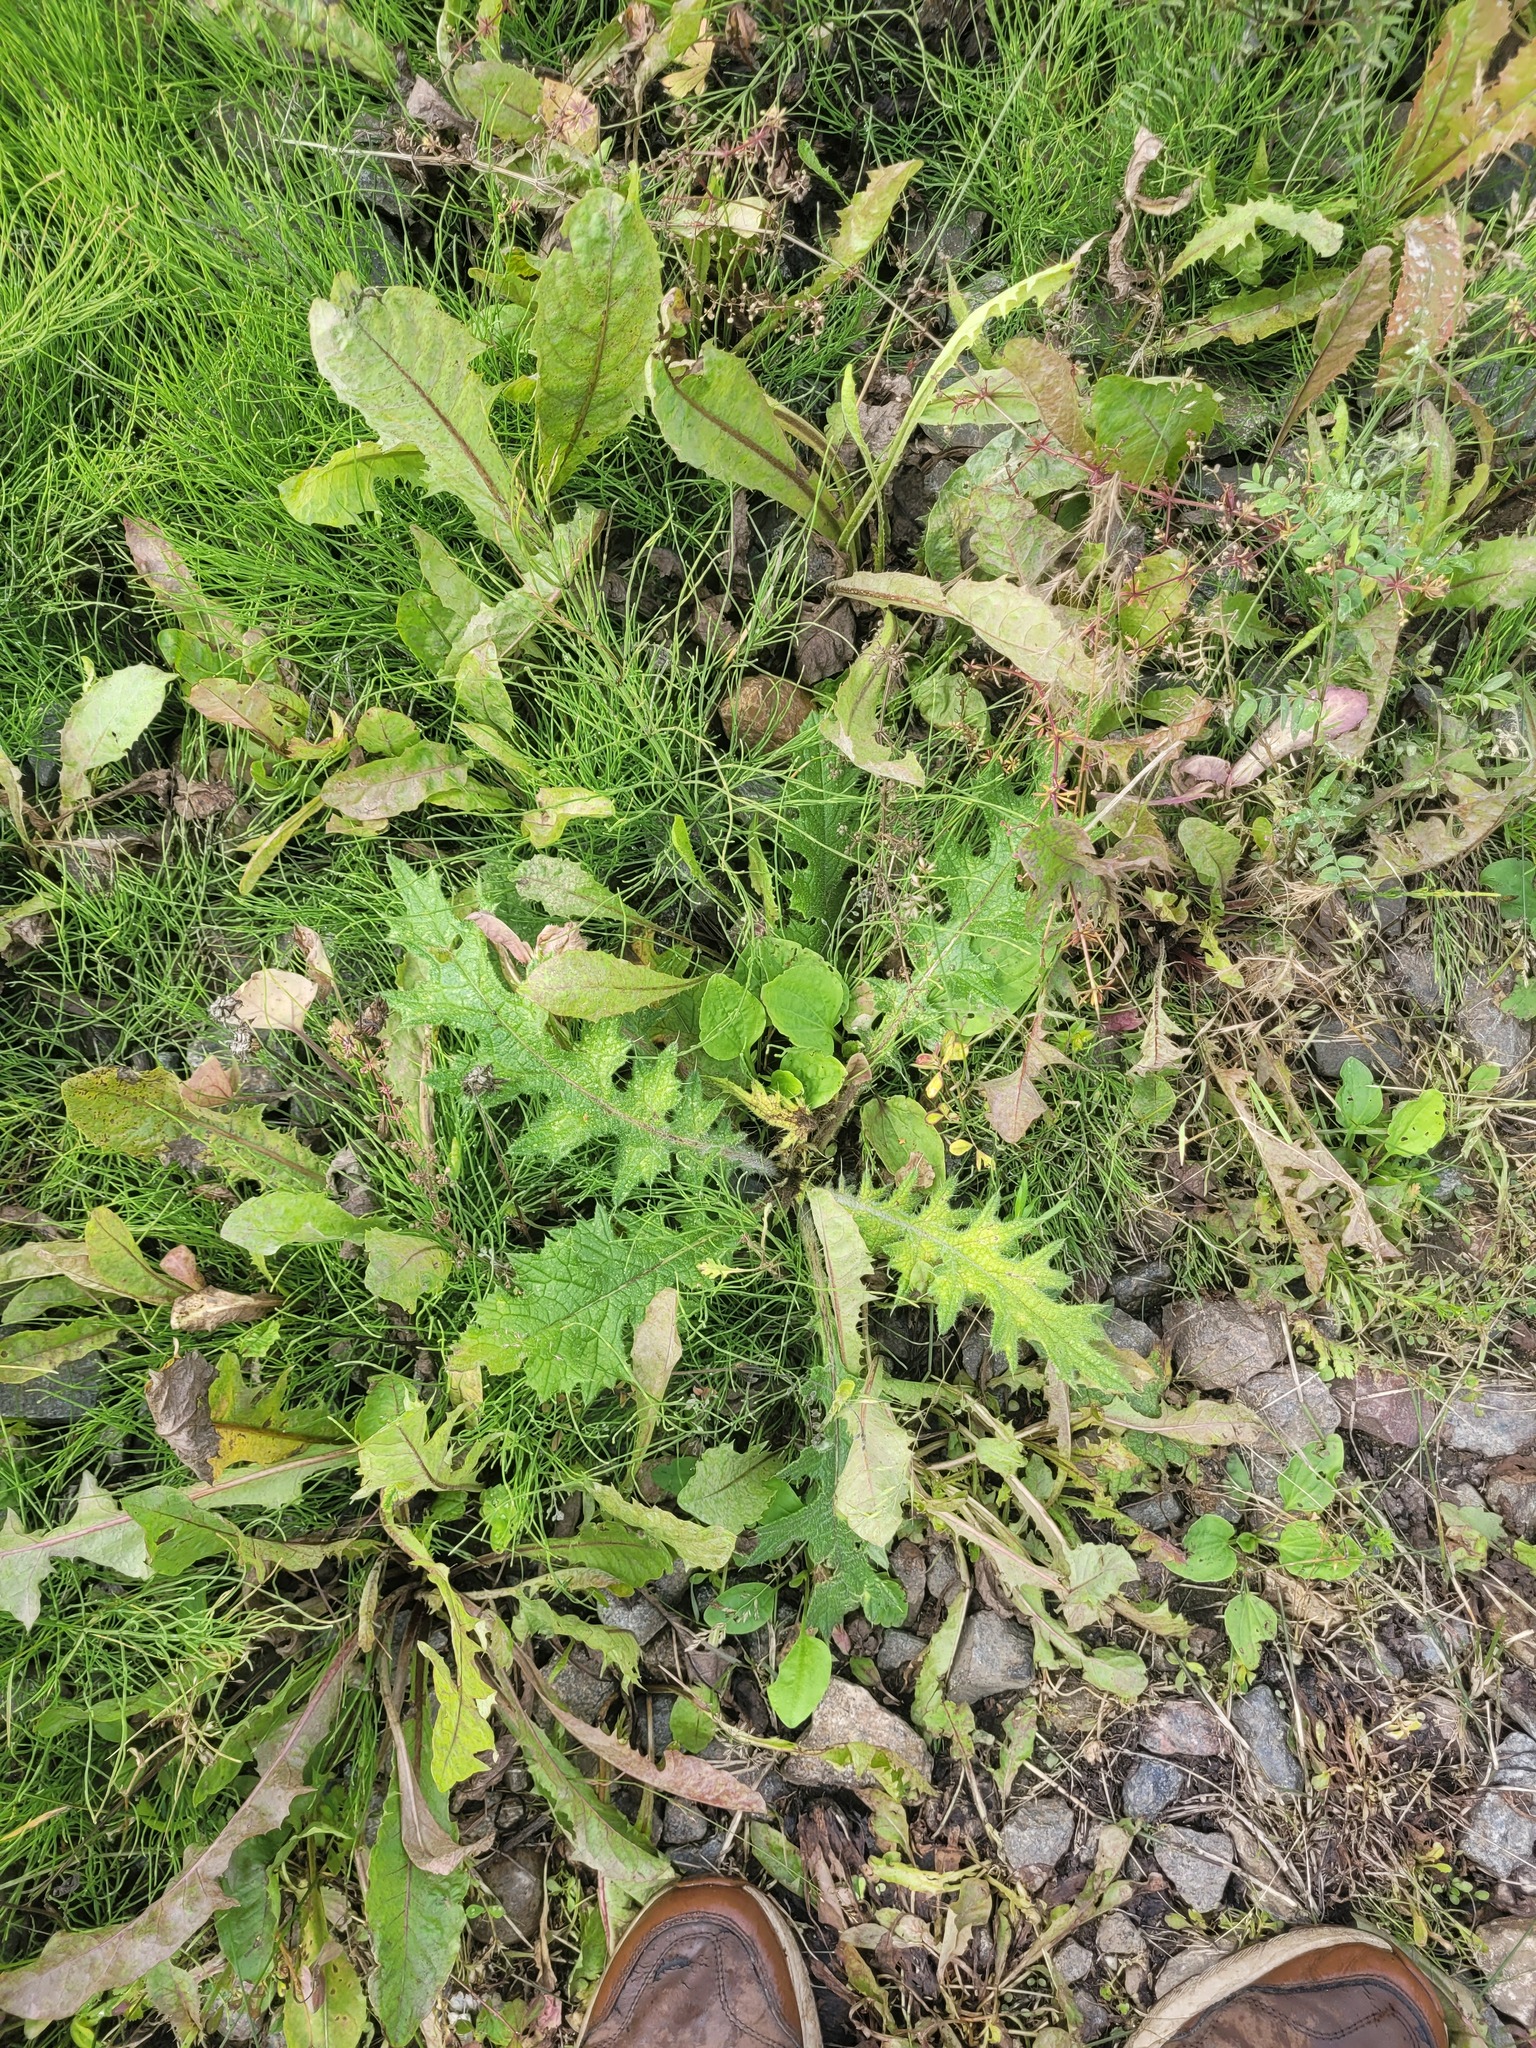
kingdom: Plantae
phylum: Tracheophyta
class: Magnoliopsida
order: Asterales
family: Asteraceae
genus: Cirsium
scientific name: Cirsium vulgare
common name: Bull thistle
